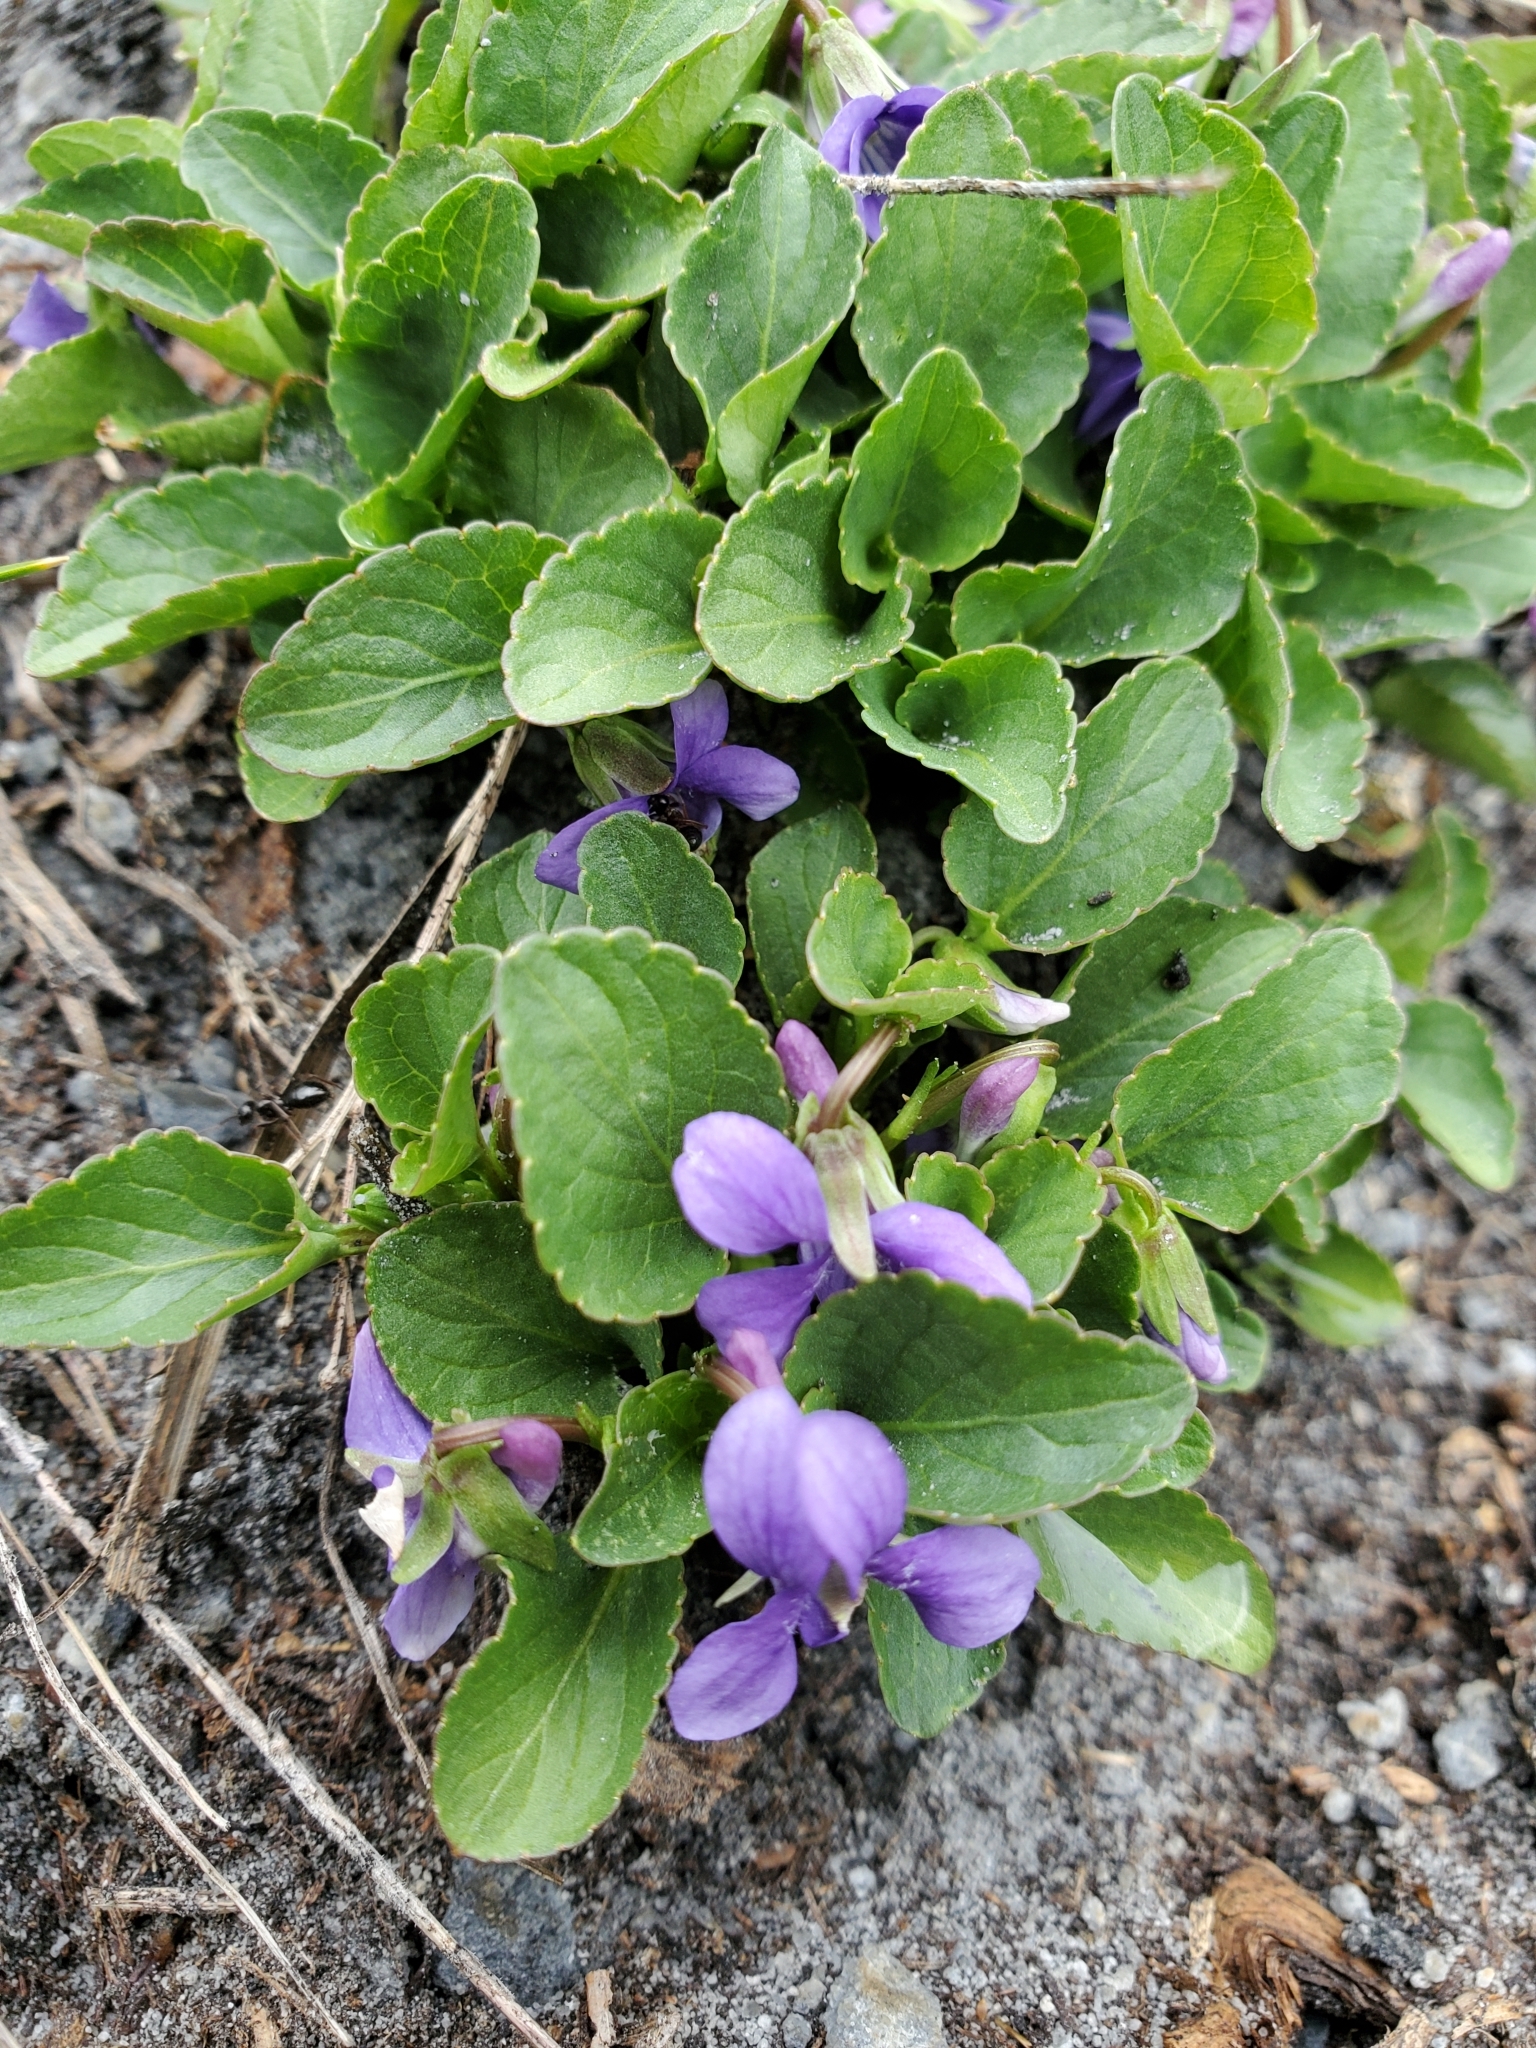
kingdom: Plantae
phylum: Tracheophyta
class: Magnoliopsida
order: Malpighiales
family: Violaceae
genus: Viola
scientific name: Viola adunca
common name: Sand violet
